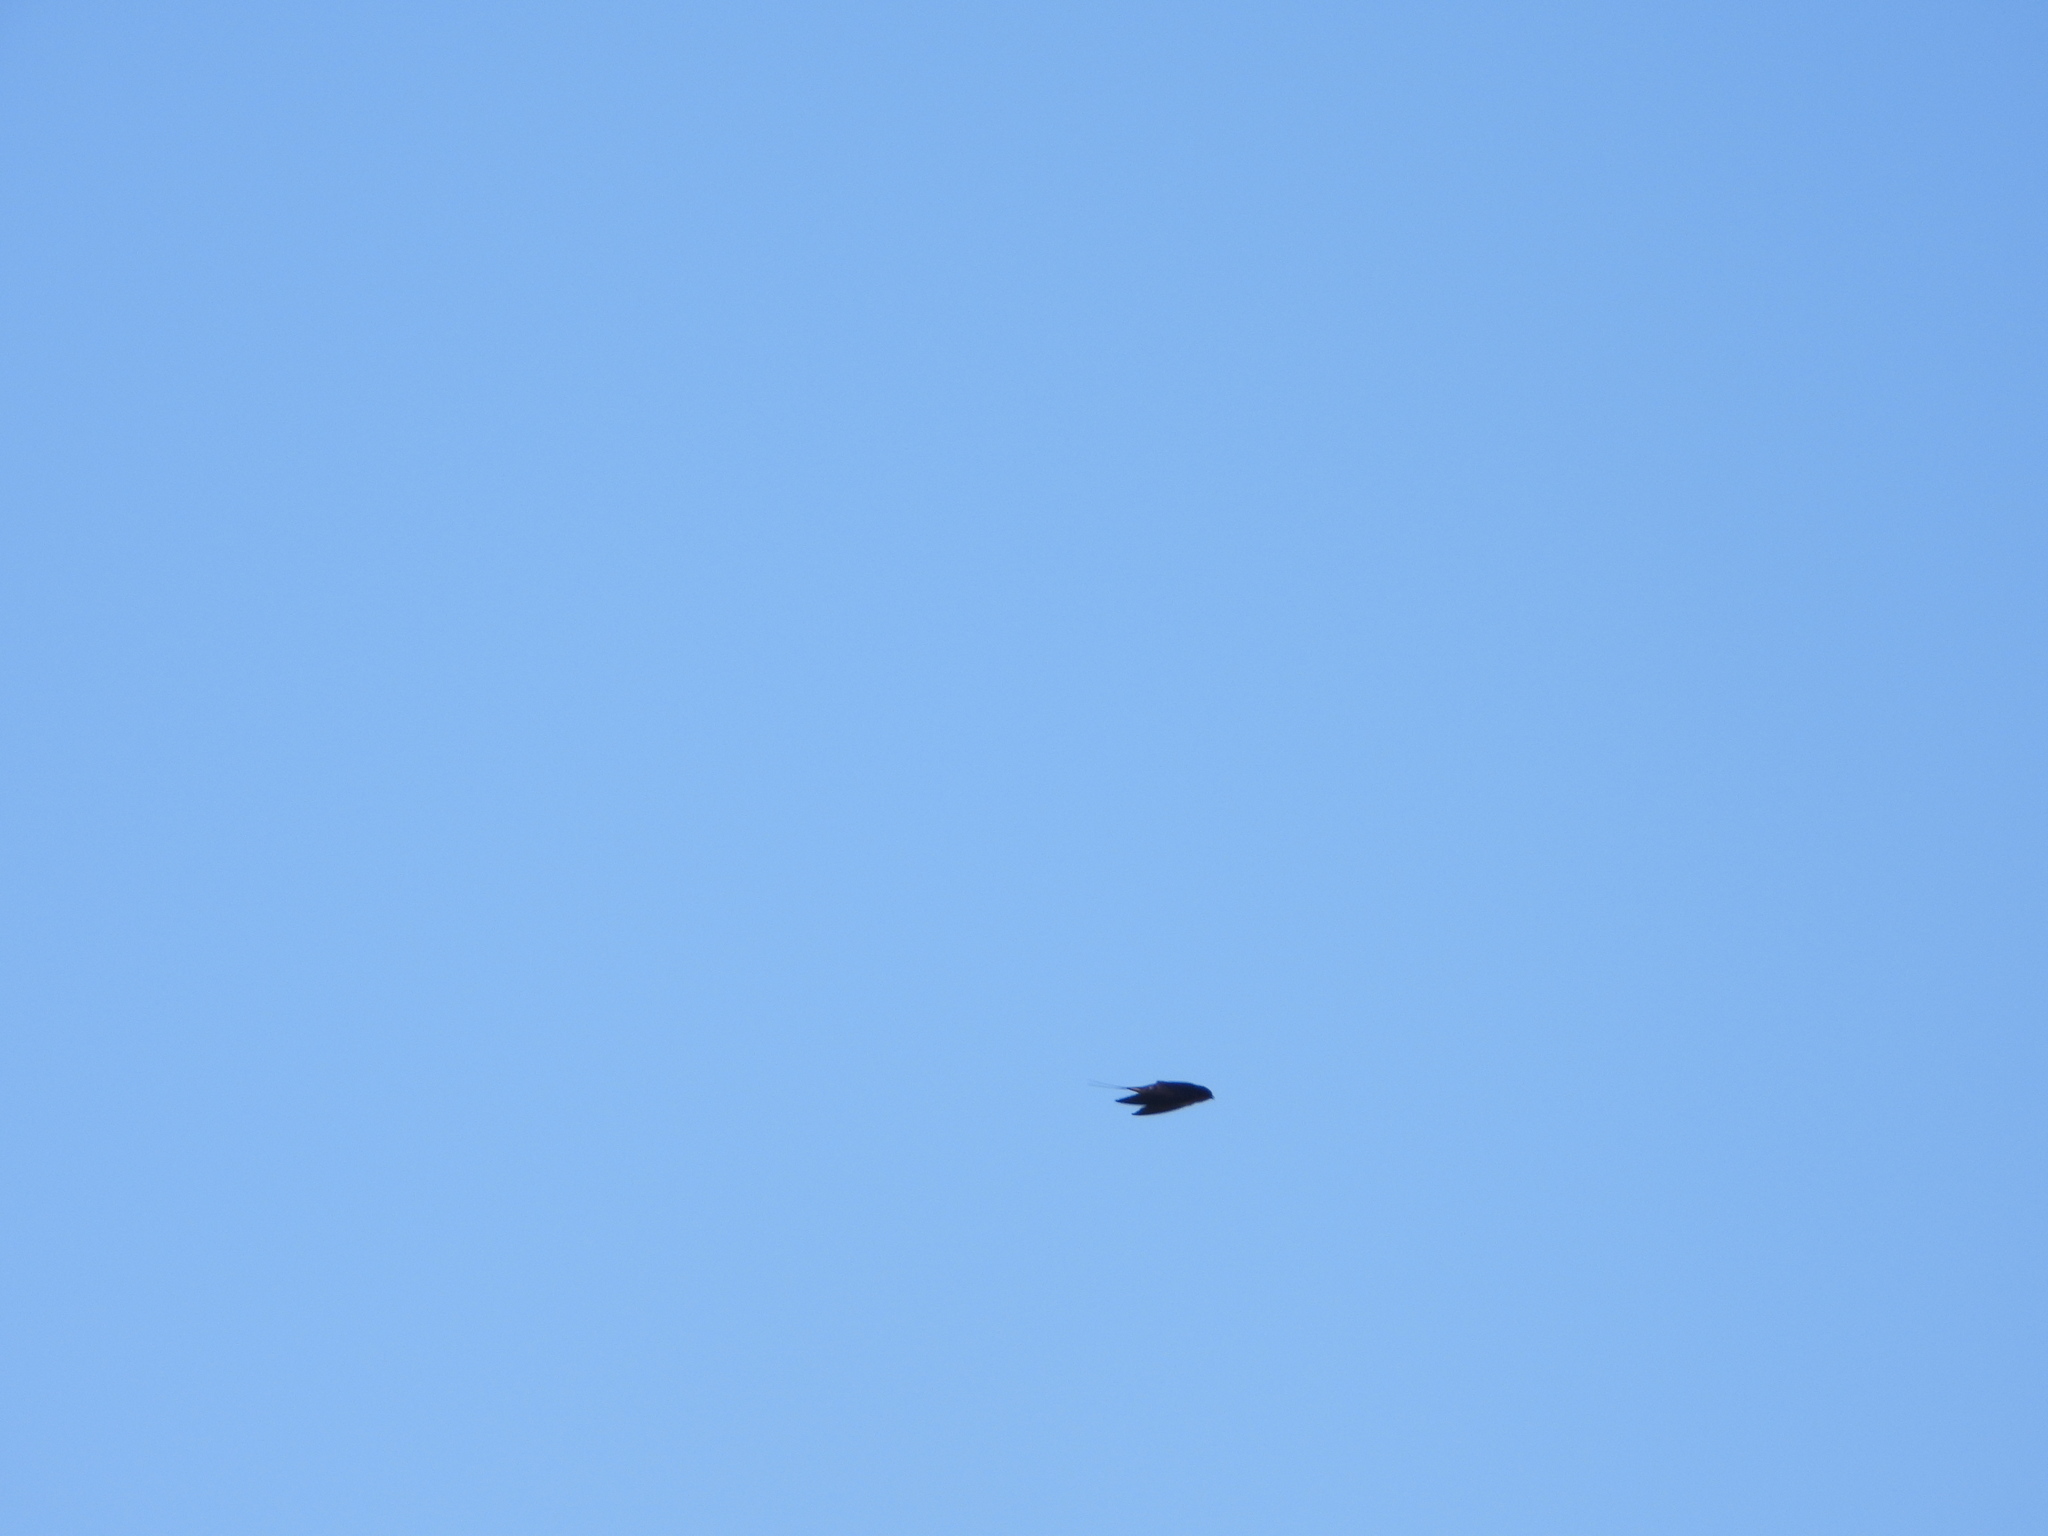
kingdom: Animalia
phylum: Chordata
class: Aves
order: Passeriformes
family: Hirundinidae
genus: Hirundo
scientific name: Hirundo rustica
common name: Barn swallow
